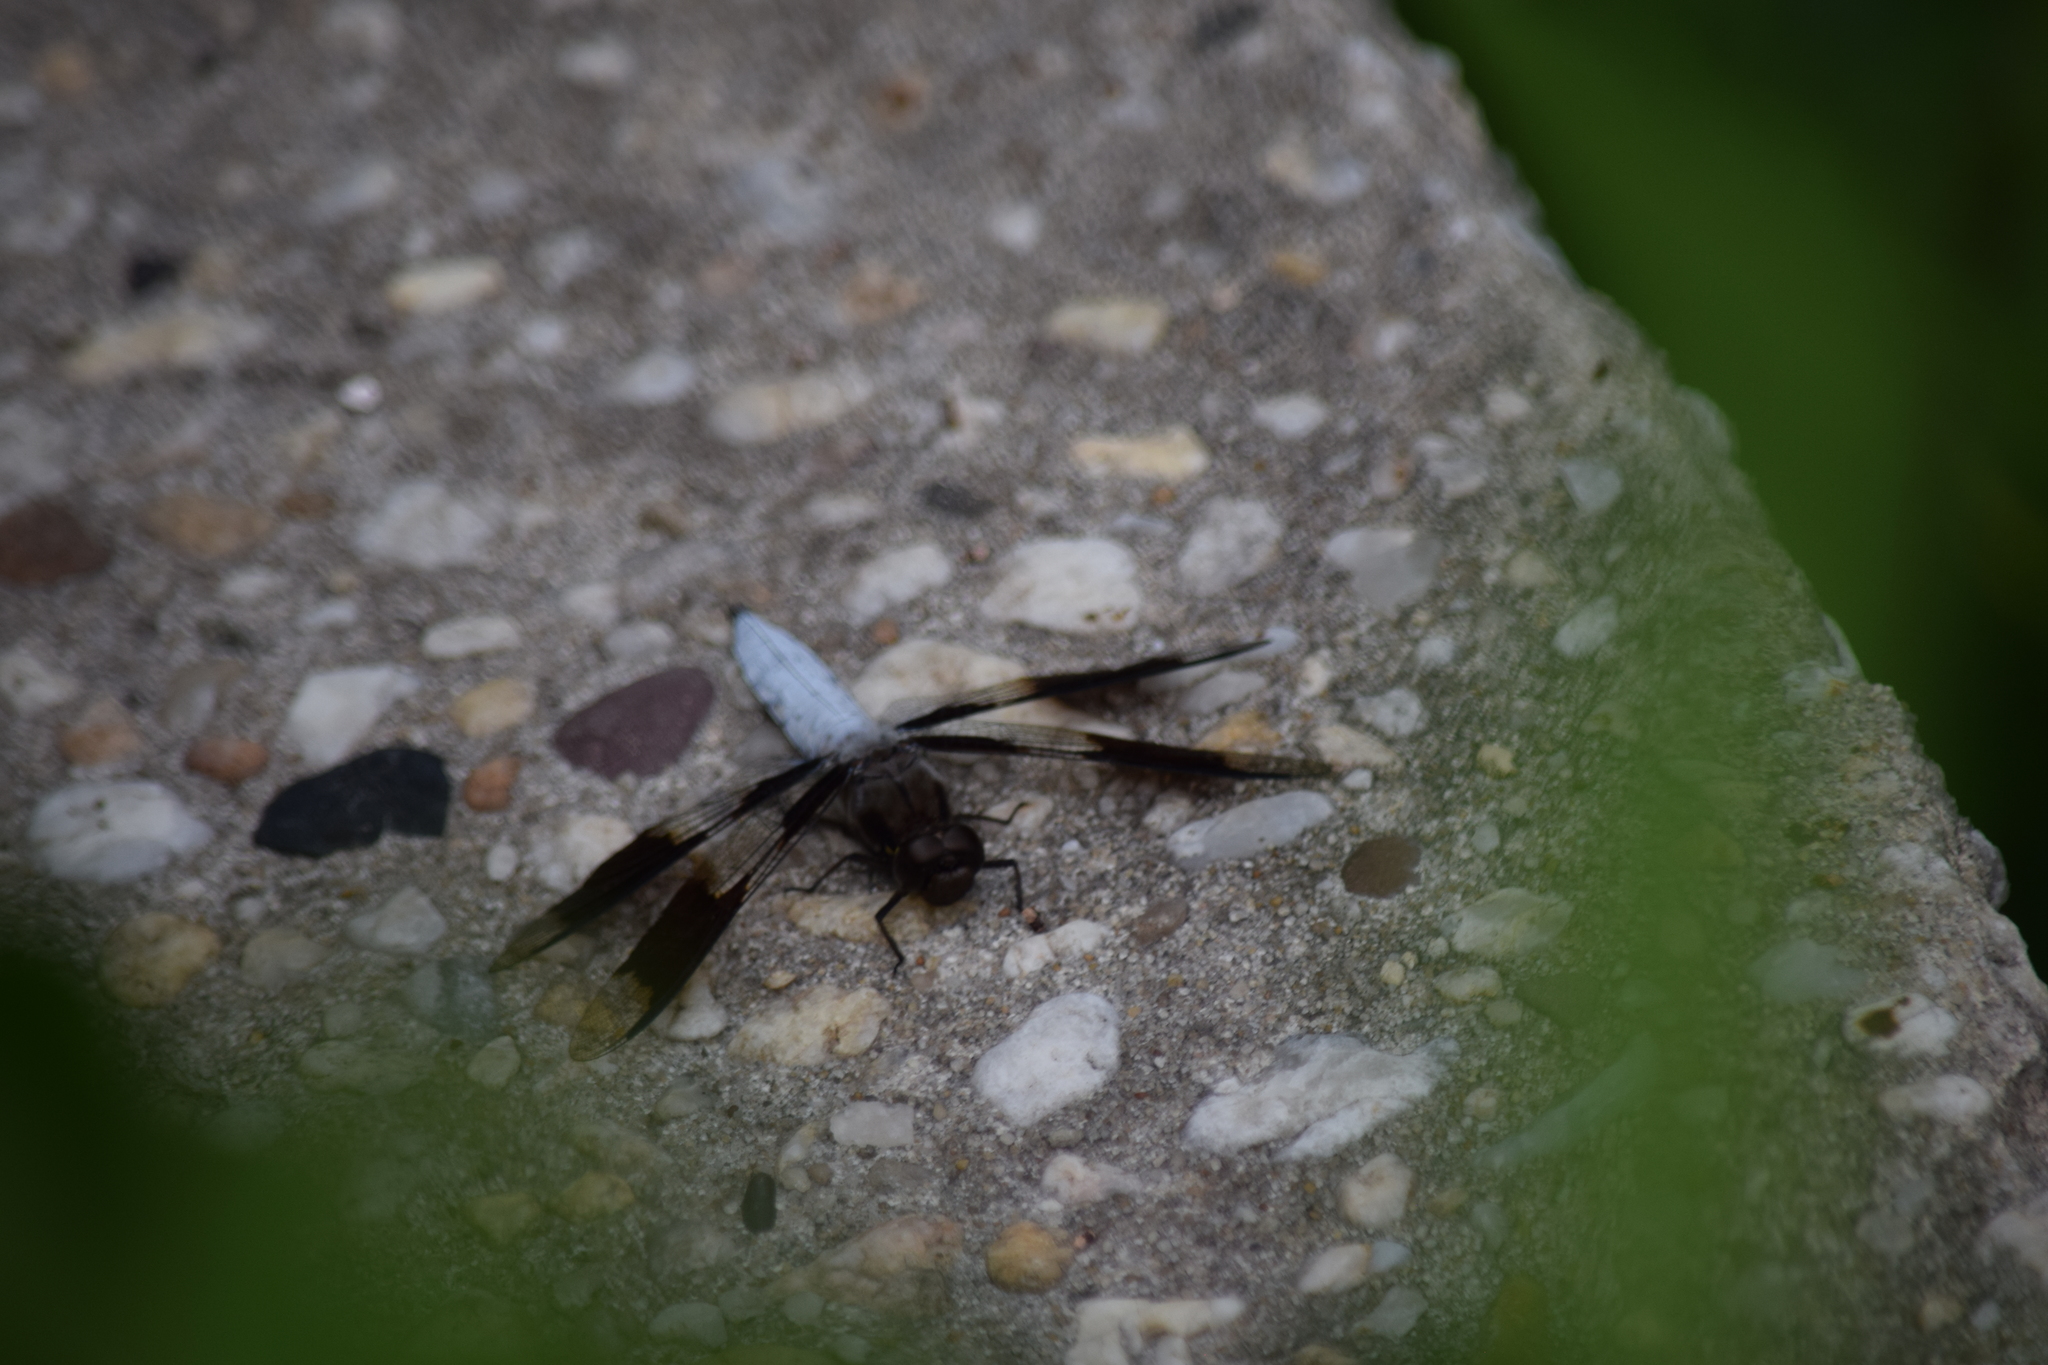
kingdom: Animalia
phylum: Arthropoda
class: Insecta
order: Odonata
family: Libellulidae
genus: Plathemis
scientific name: Plathemis lydia
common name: Common whitetail
